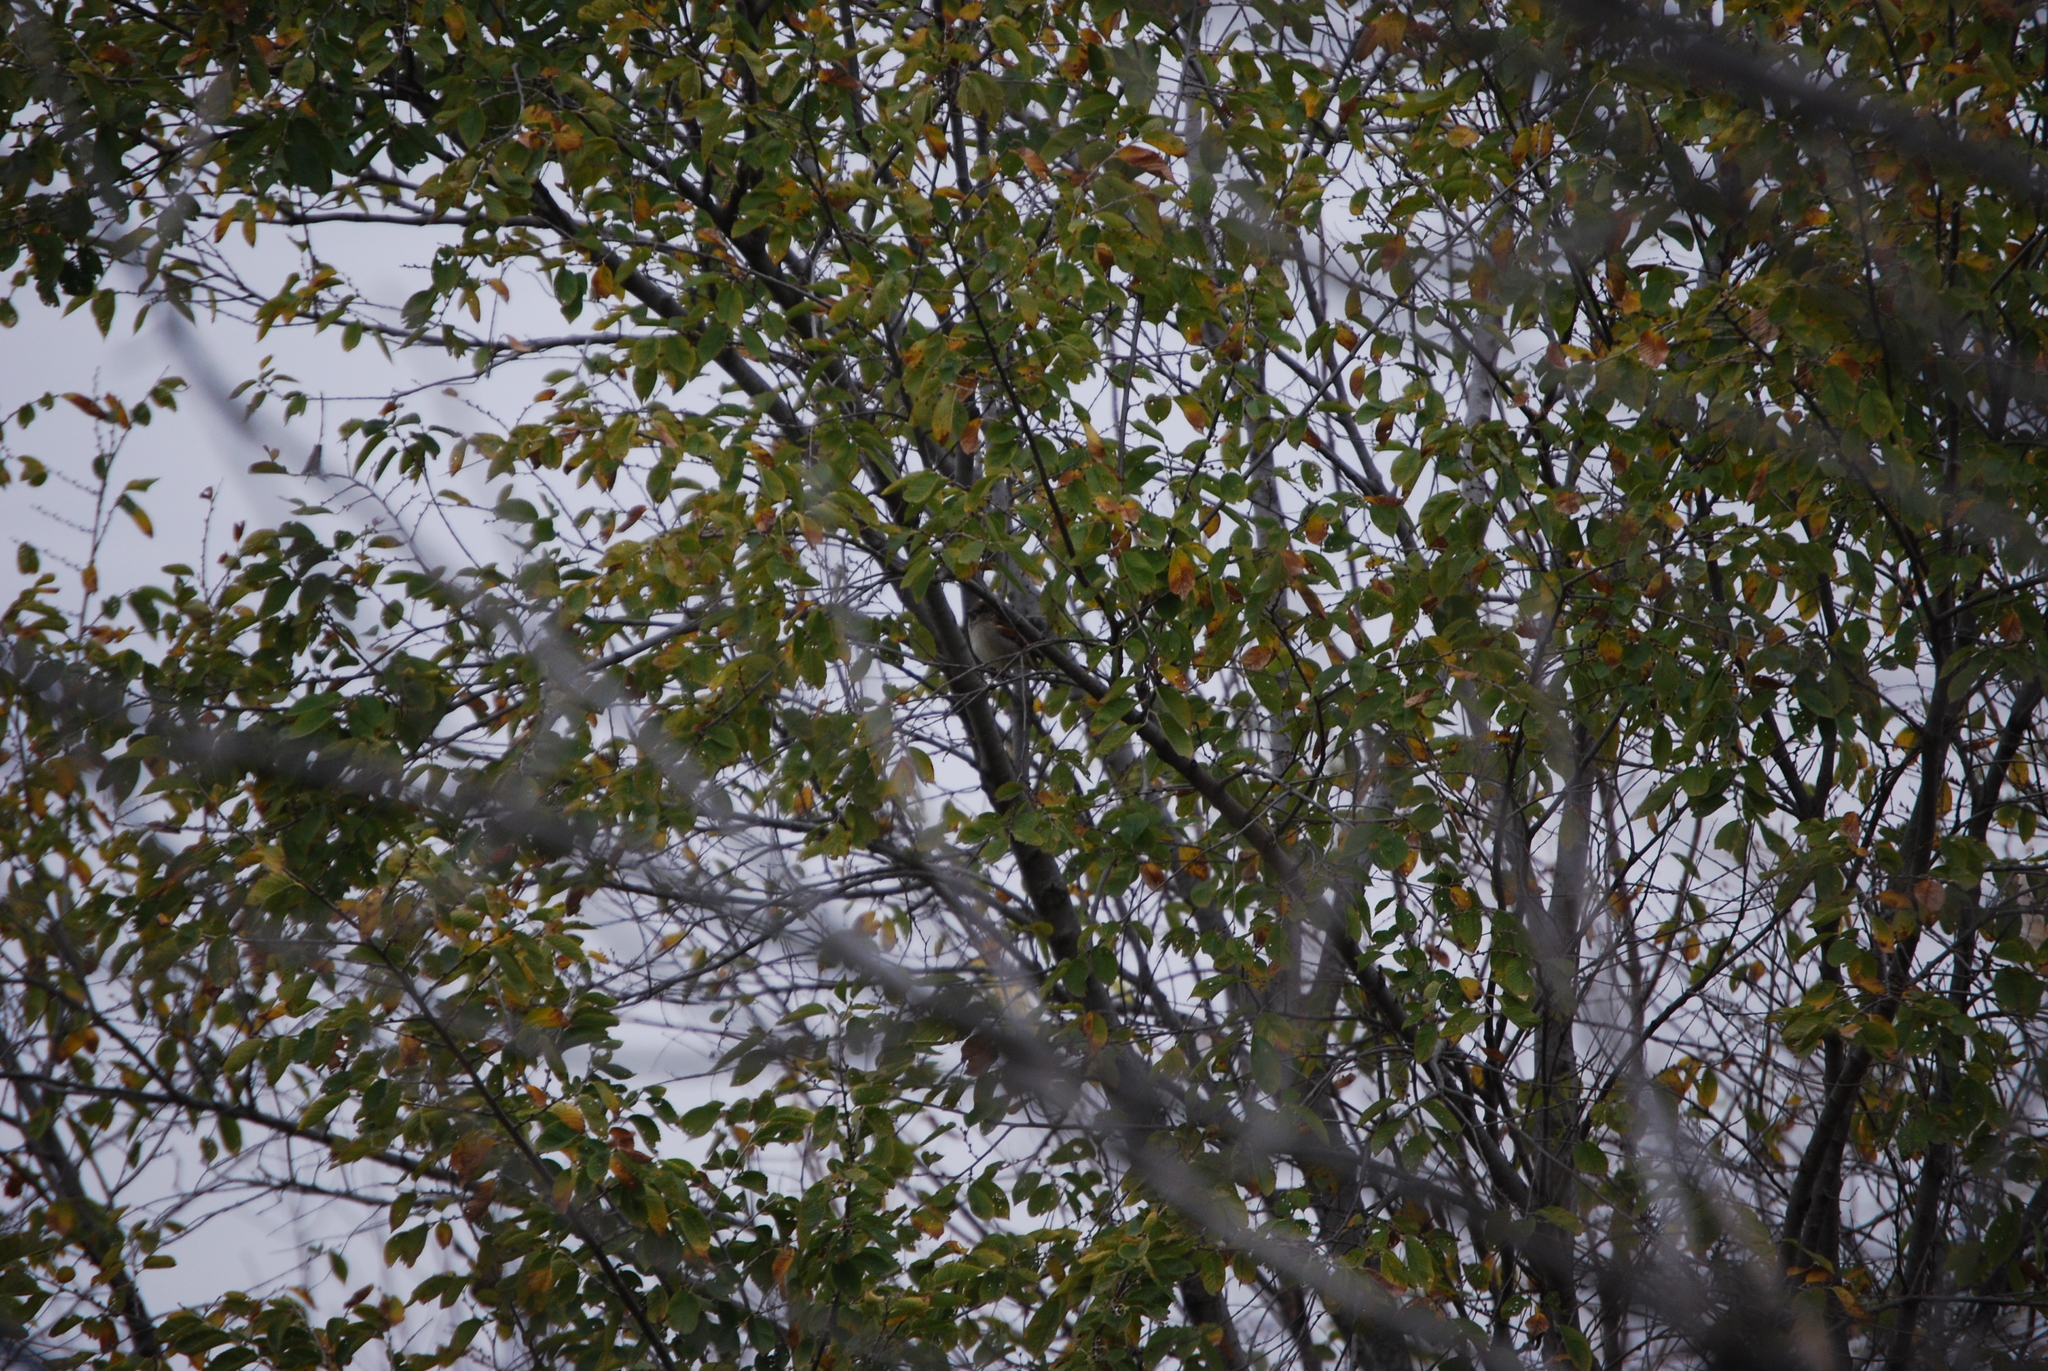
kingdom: Animalia
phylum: Chordata
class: Aves
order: Passeriformes
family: Passeridae
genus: Passer
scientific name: Passer domesticus
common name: House sparrow
